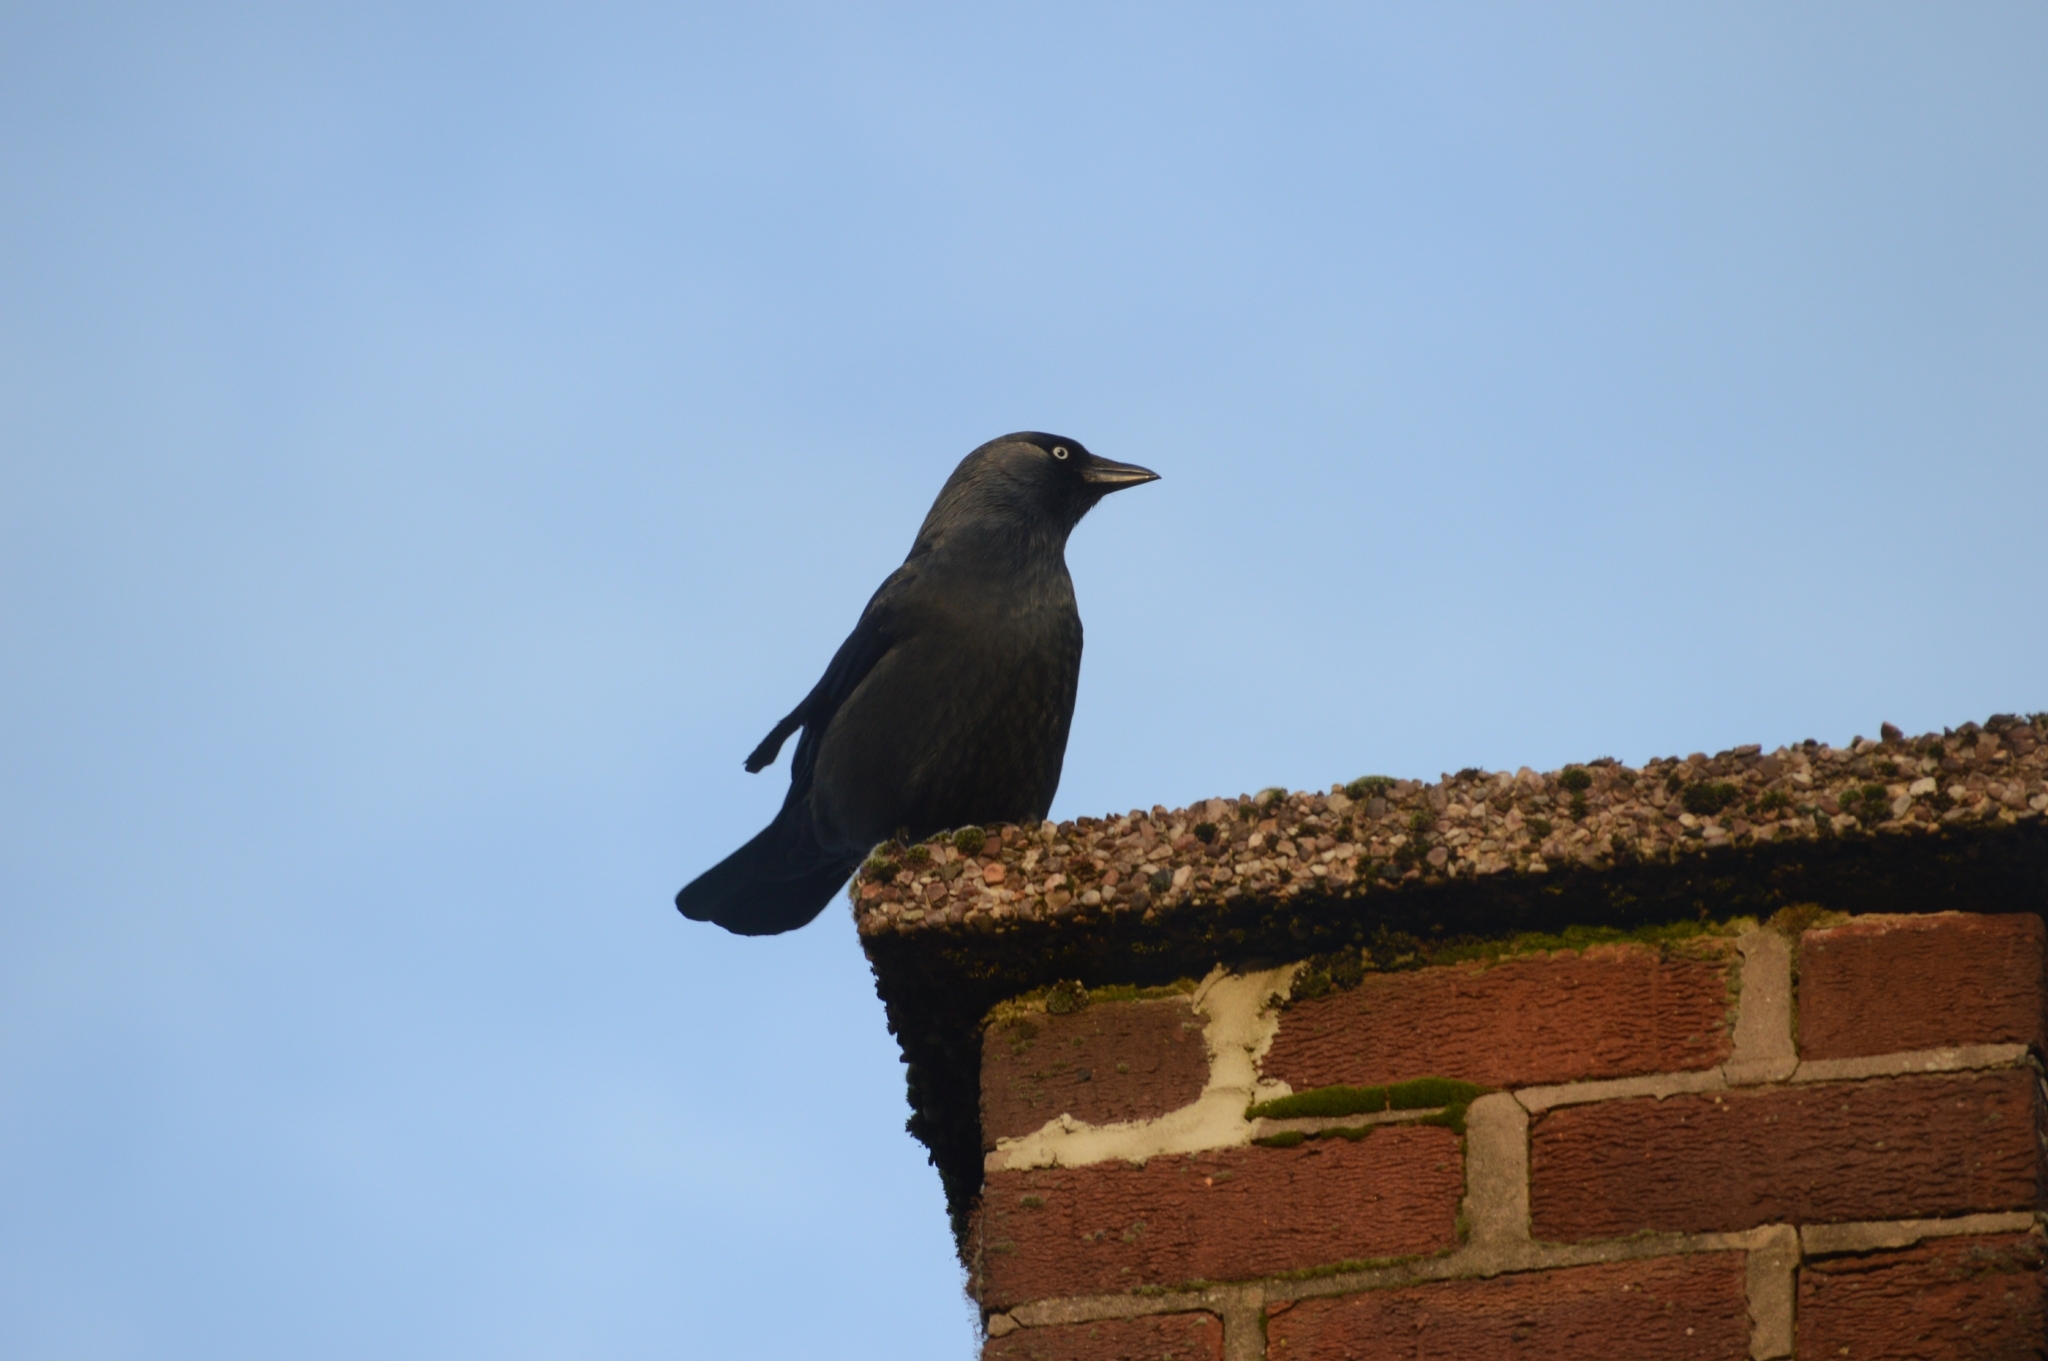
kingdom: Animalia
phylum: Chordata
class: Aves
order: Passeriformes
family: Corvidae
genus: Coloeus
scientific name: Coloeus monedula
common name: Western jackdaw
